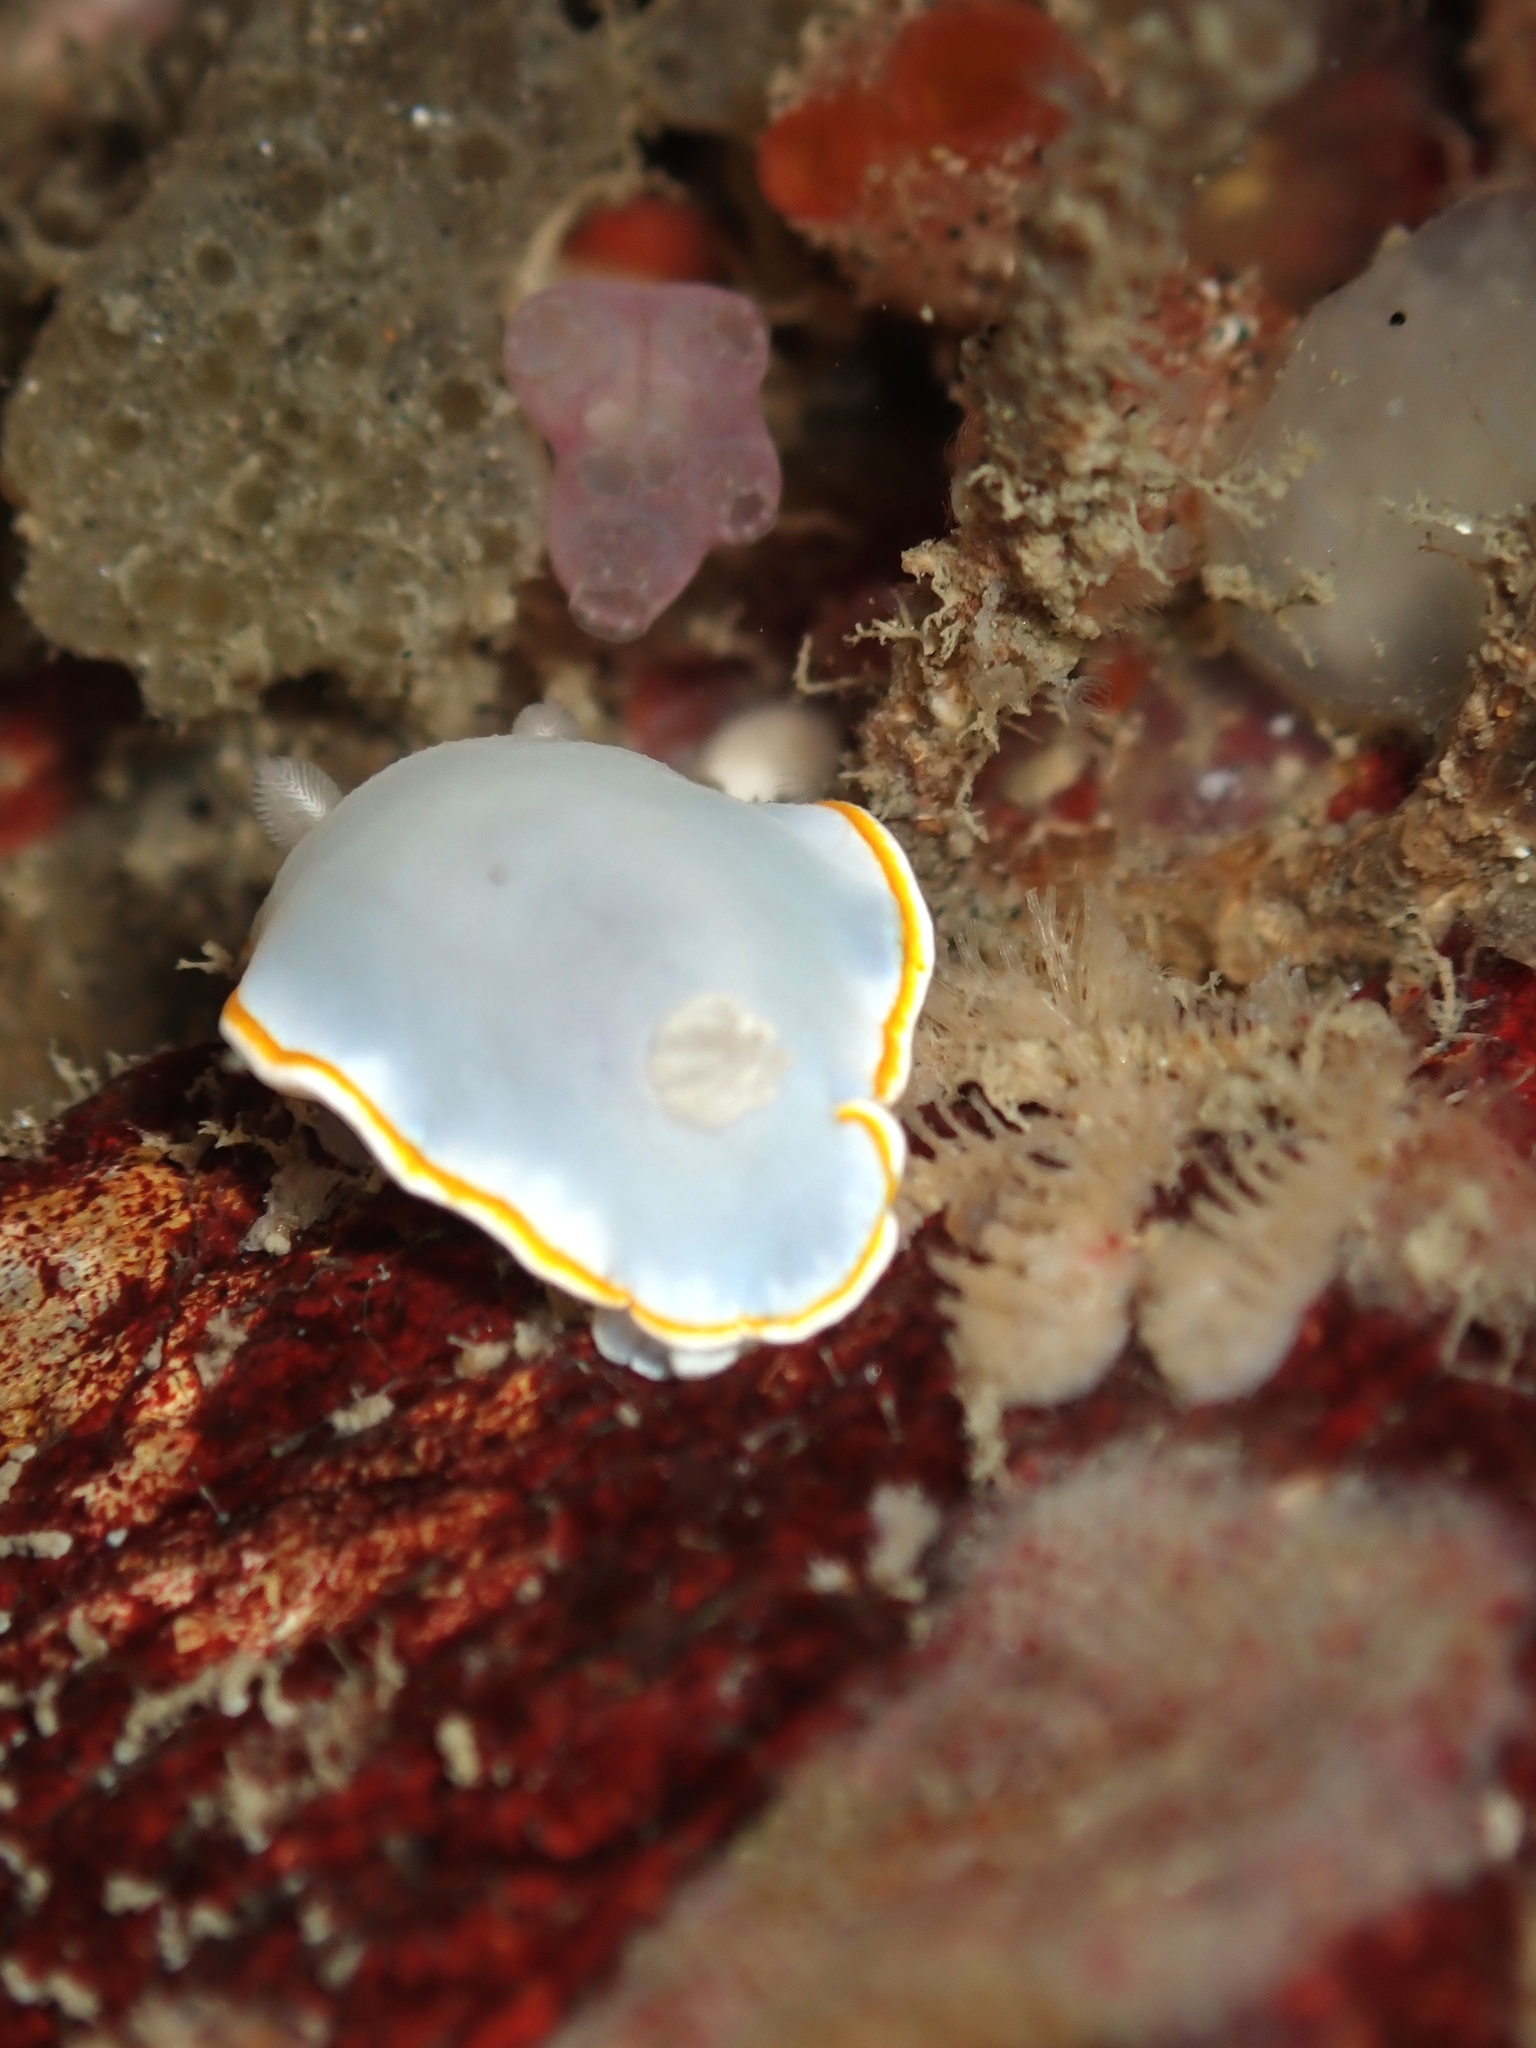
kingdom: Animalia
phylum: Mollusca
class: Gastropoda
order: Nudibranchia
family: Chromodorididae
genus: Goniobranchus
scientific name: Goniobranchus aureomarginatus
